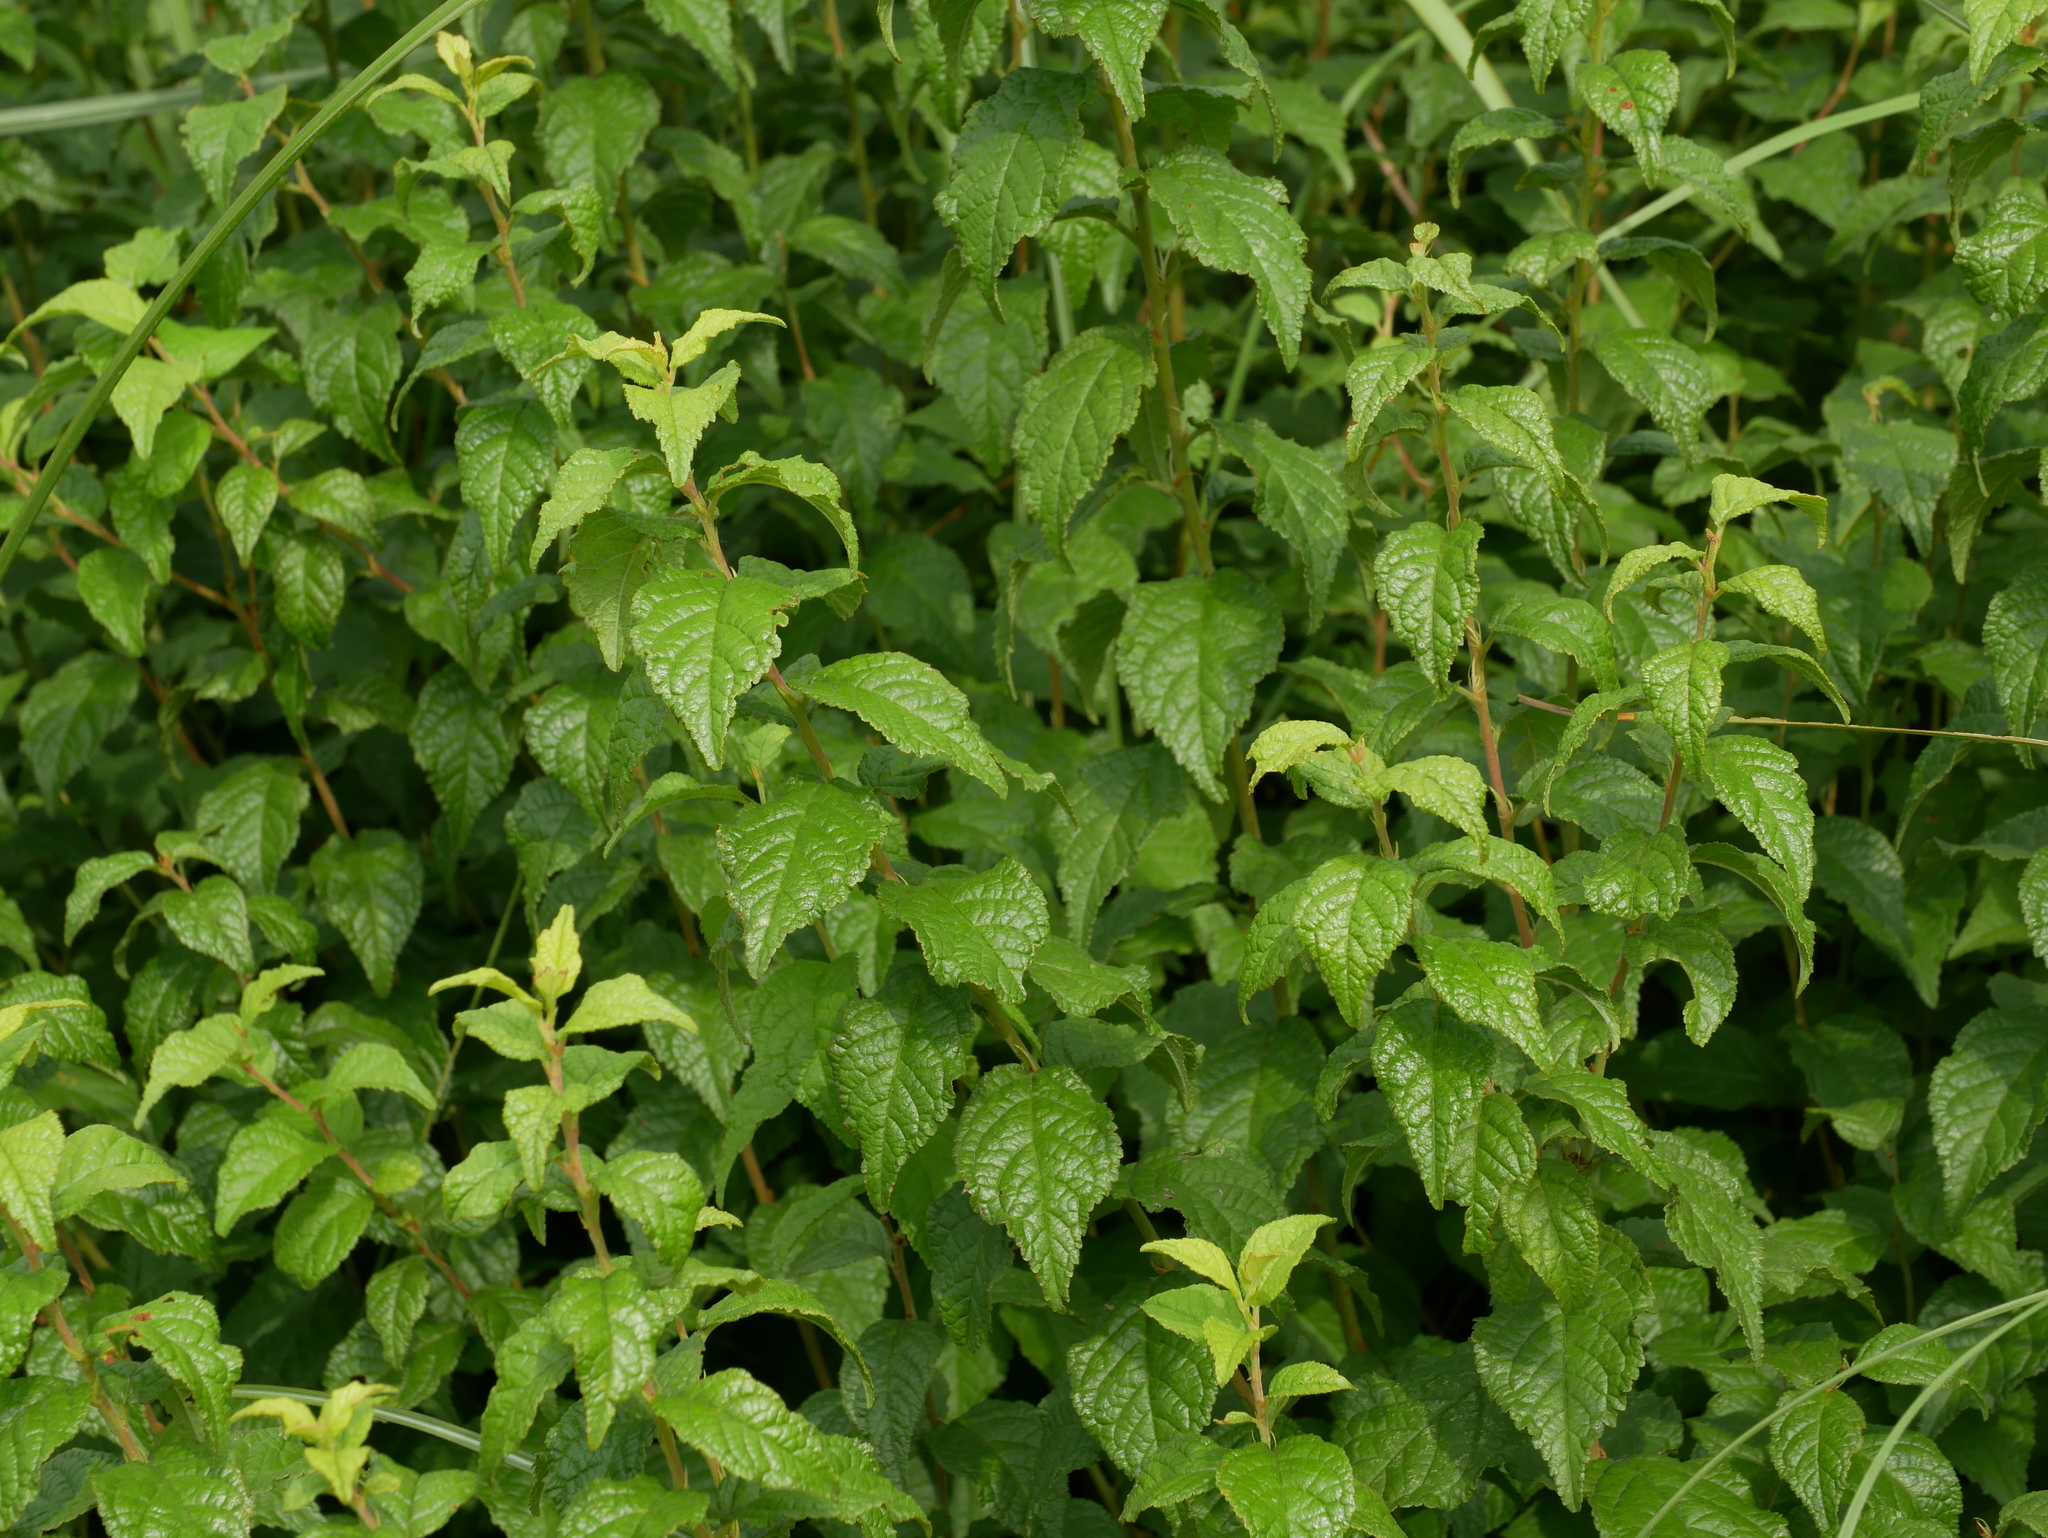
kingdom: Plantae
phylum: Tracheophyta
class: Magnoliopsida
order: Rosales
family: Rosaceae
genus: Prunus
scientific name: Prunus pogonostyla
